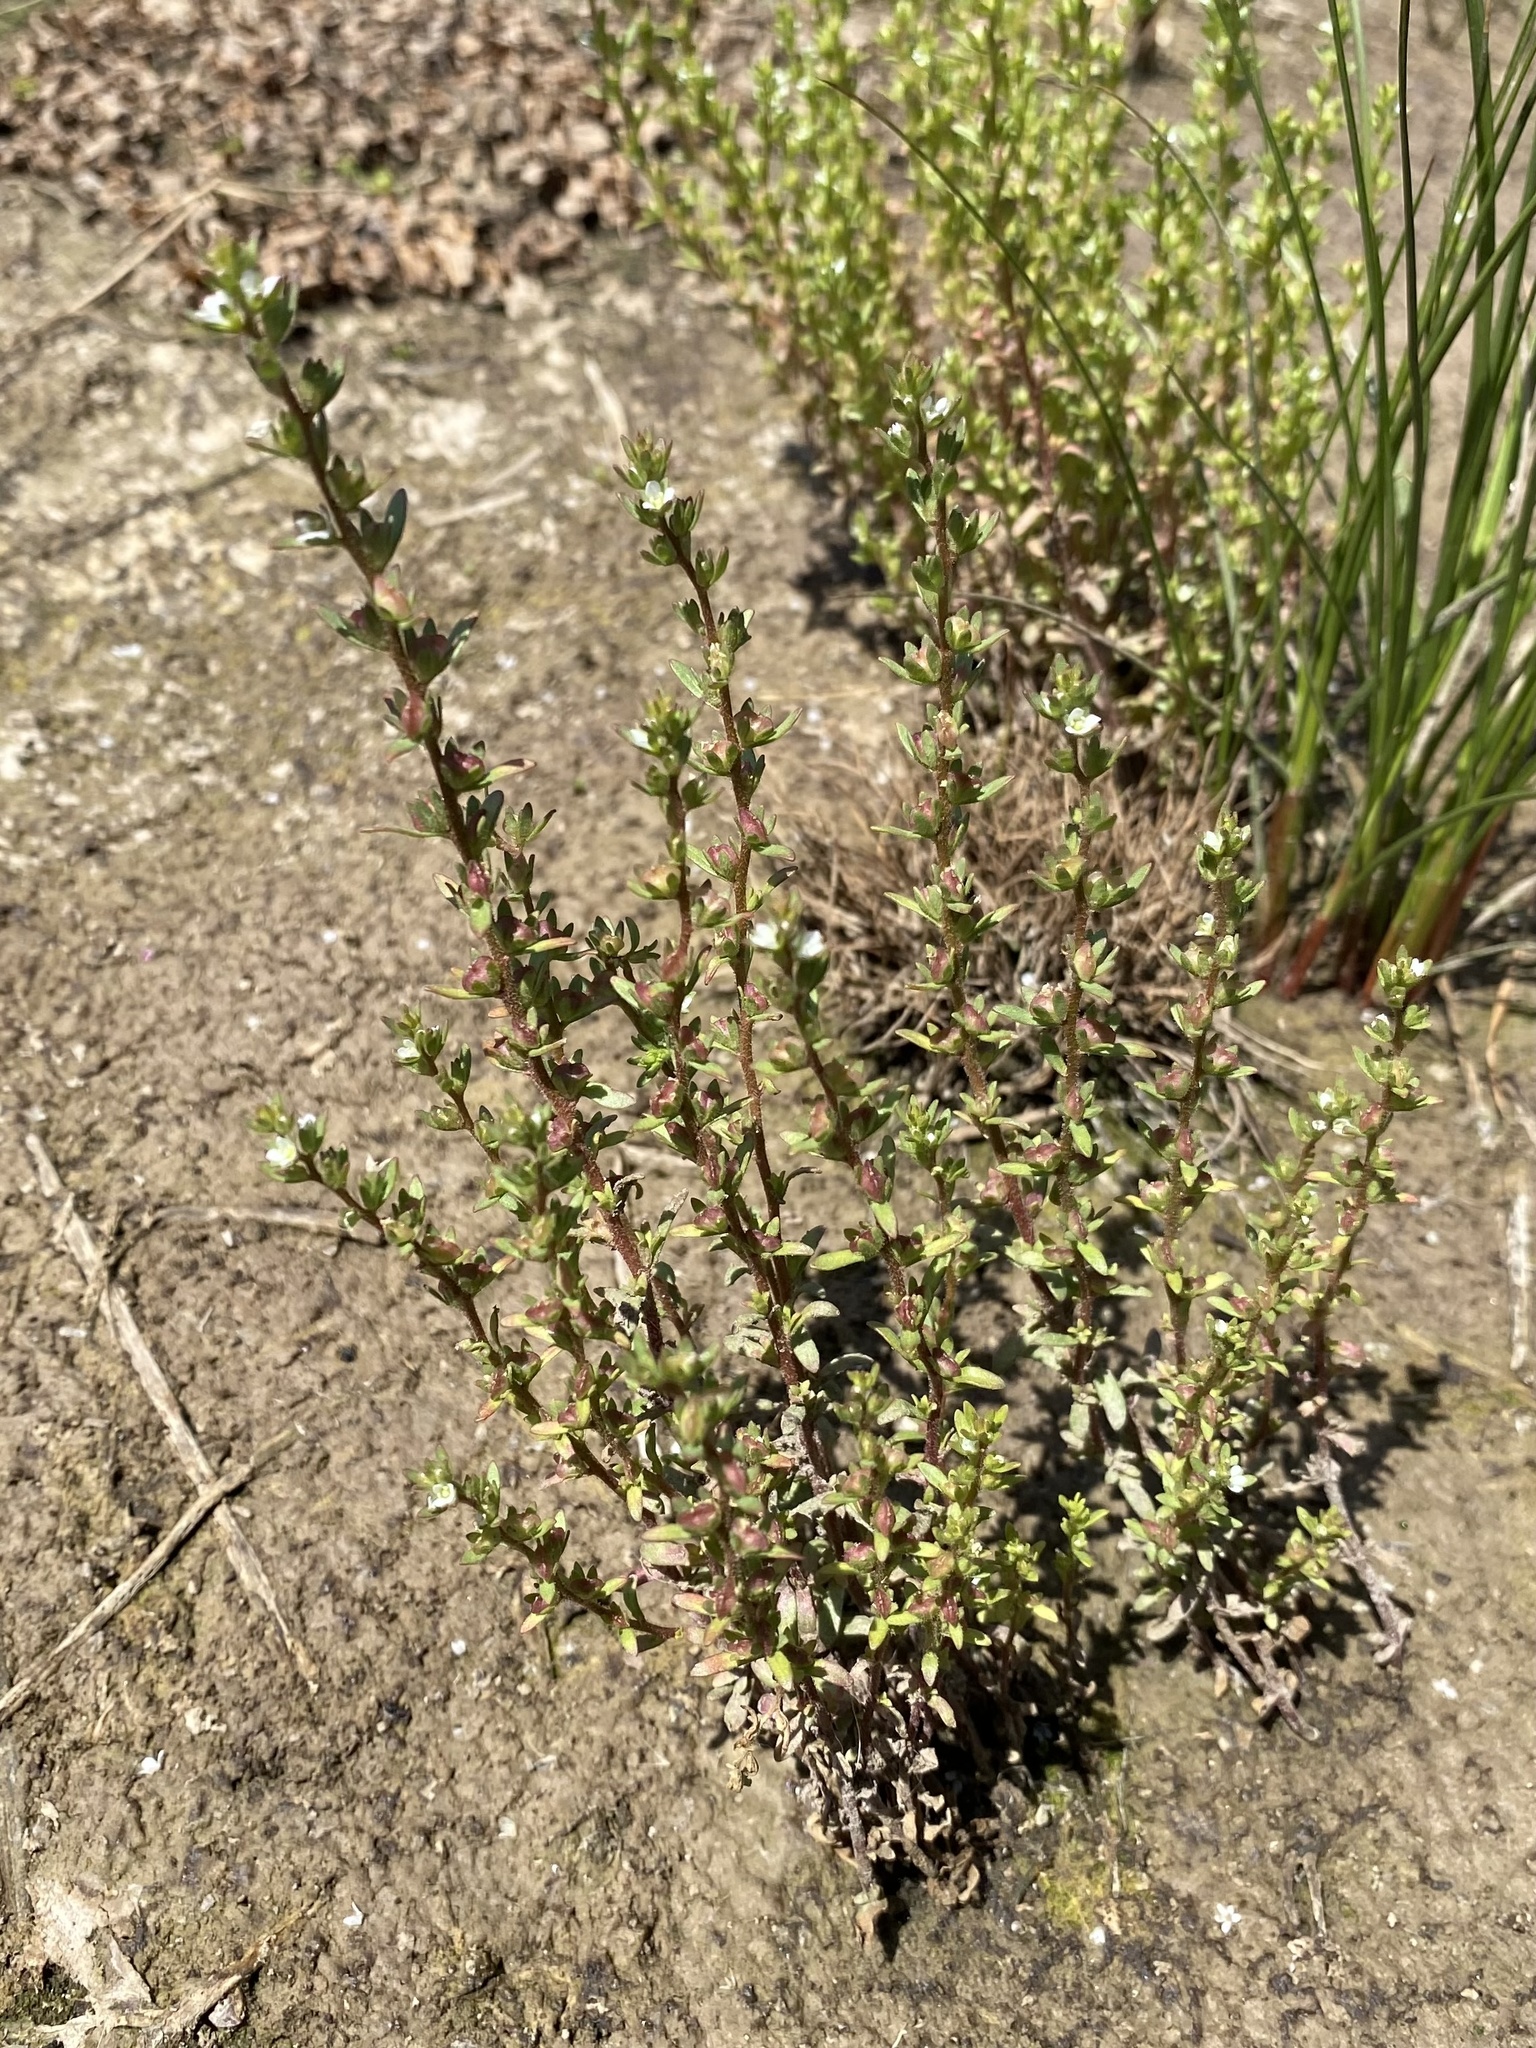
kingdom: Plantae
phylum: Tracheophyta
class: Magnoliopsida
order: Lamiales
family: Plantaginaceae
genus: Veronica
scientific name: Veronica peregrina
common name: Neckweed
